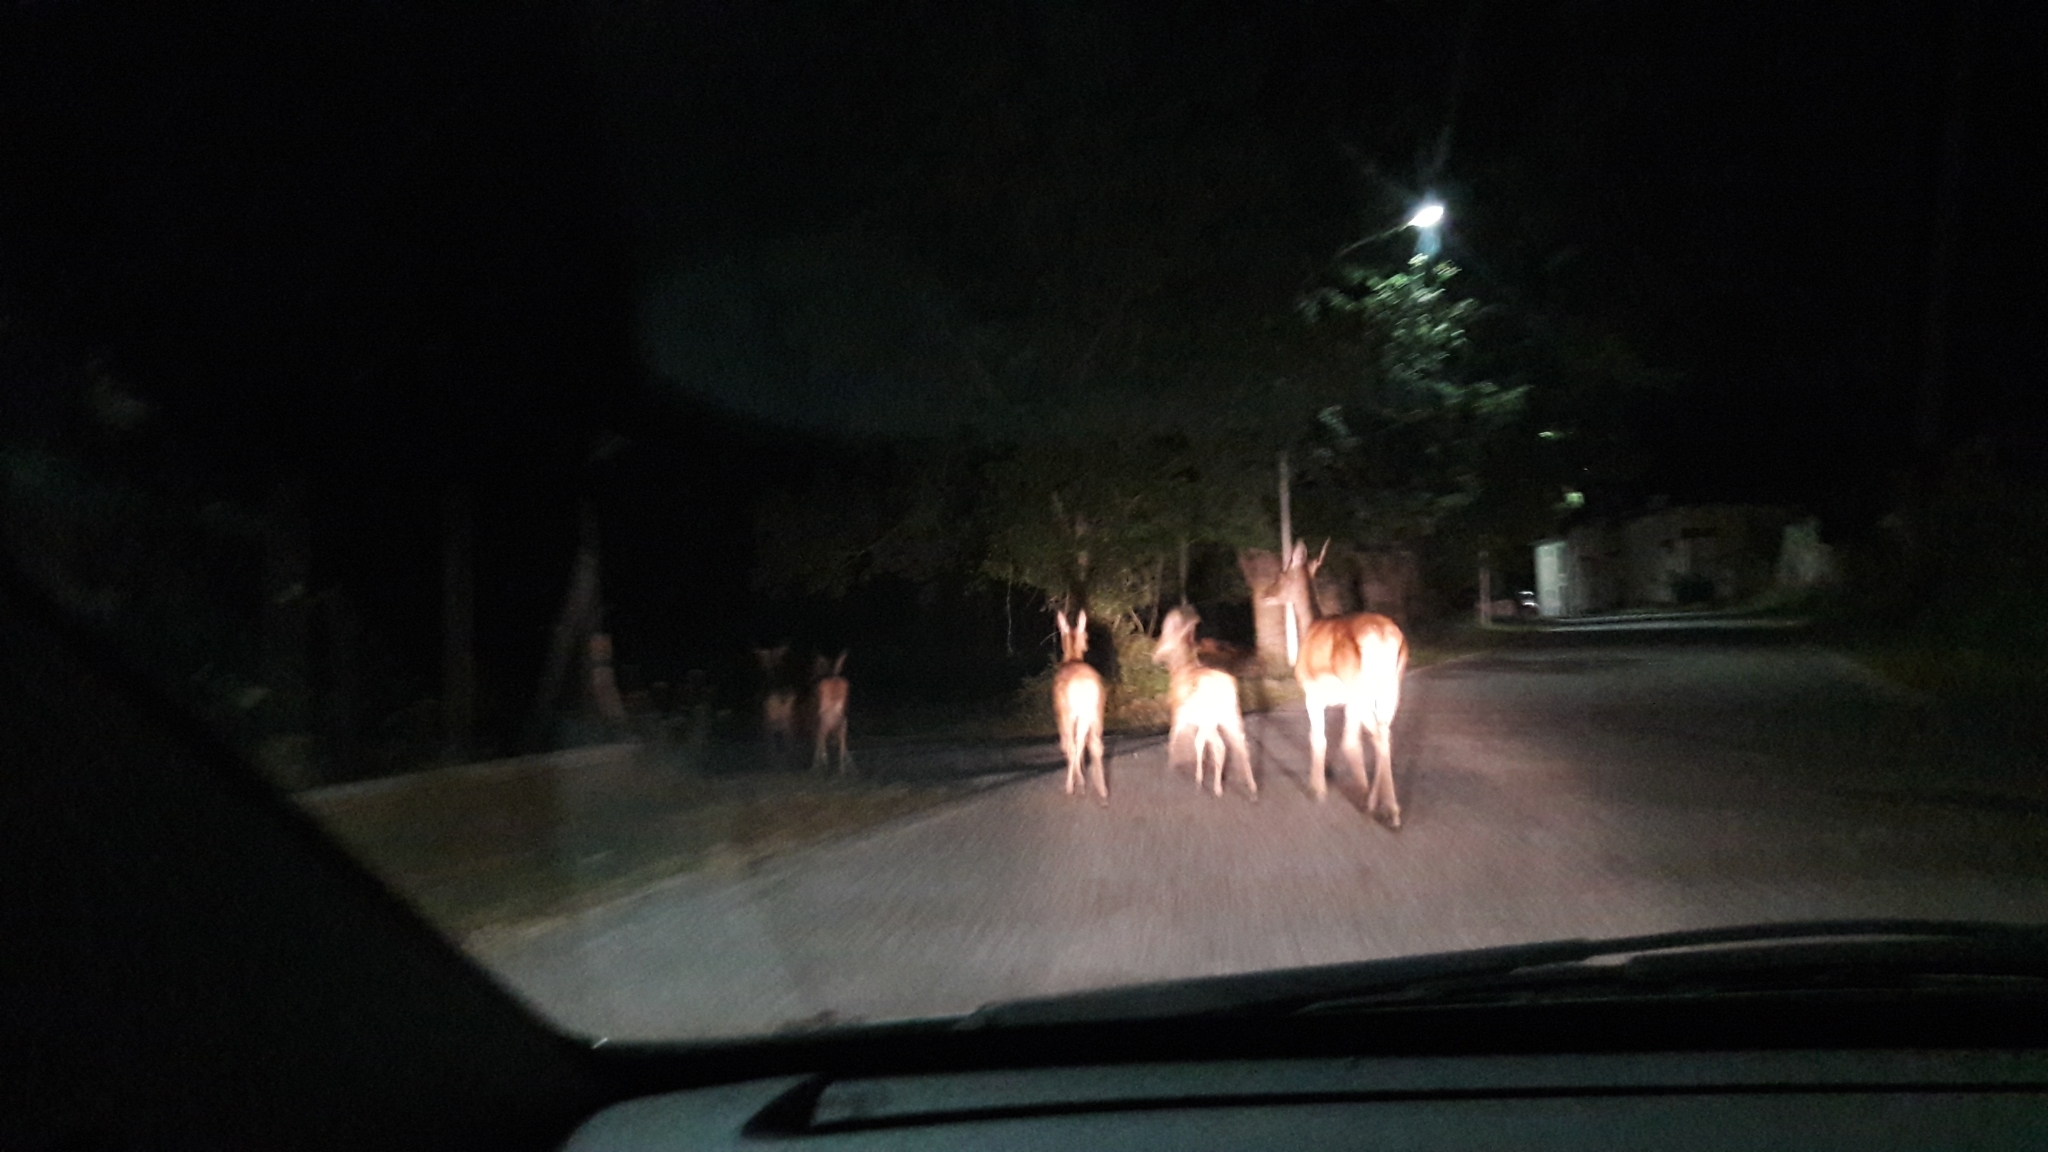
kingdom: Animalia
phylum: Chordata
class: Mammalia
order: Artiodactyla
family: Cervidae
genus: Cervus
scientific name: Cervus elaphus
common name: Red deer
